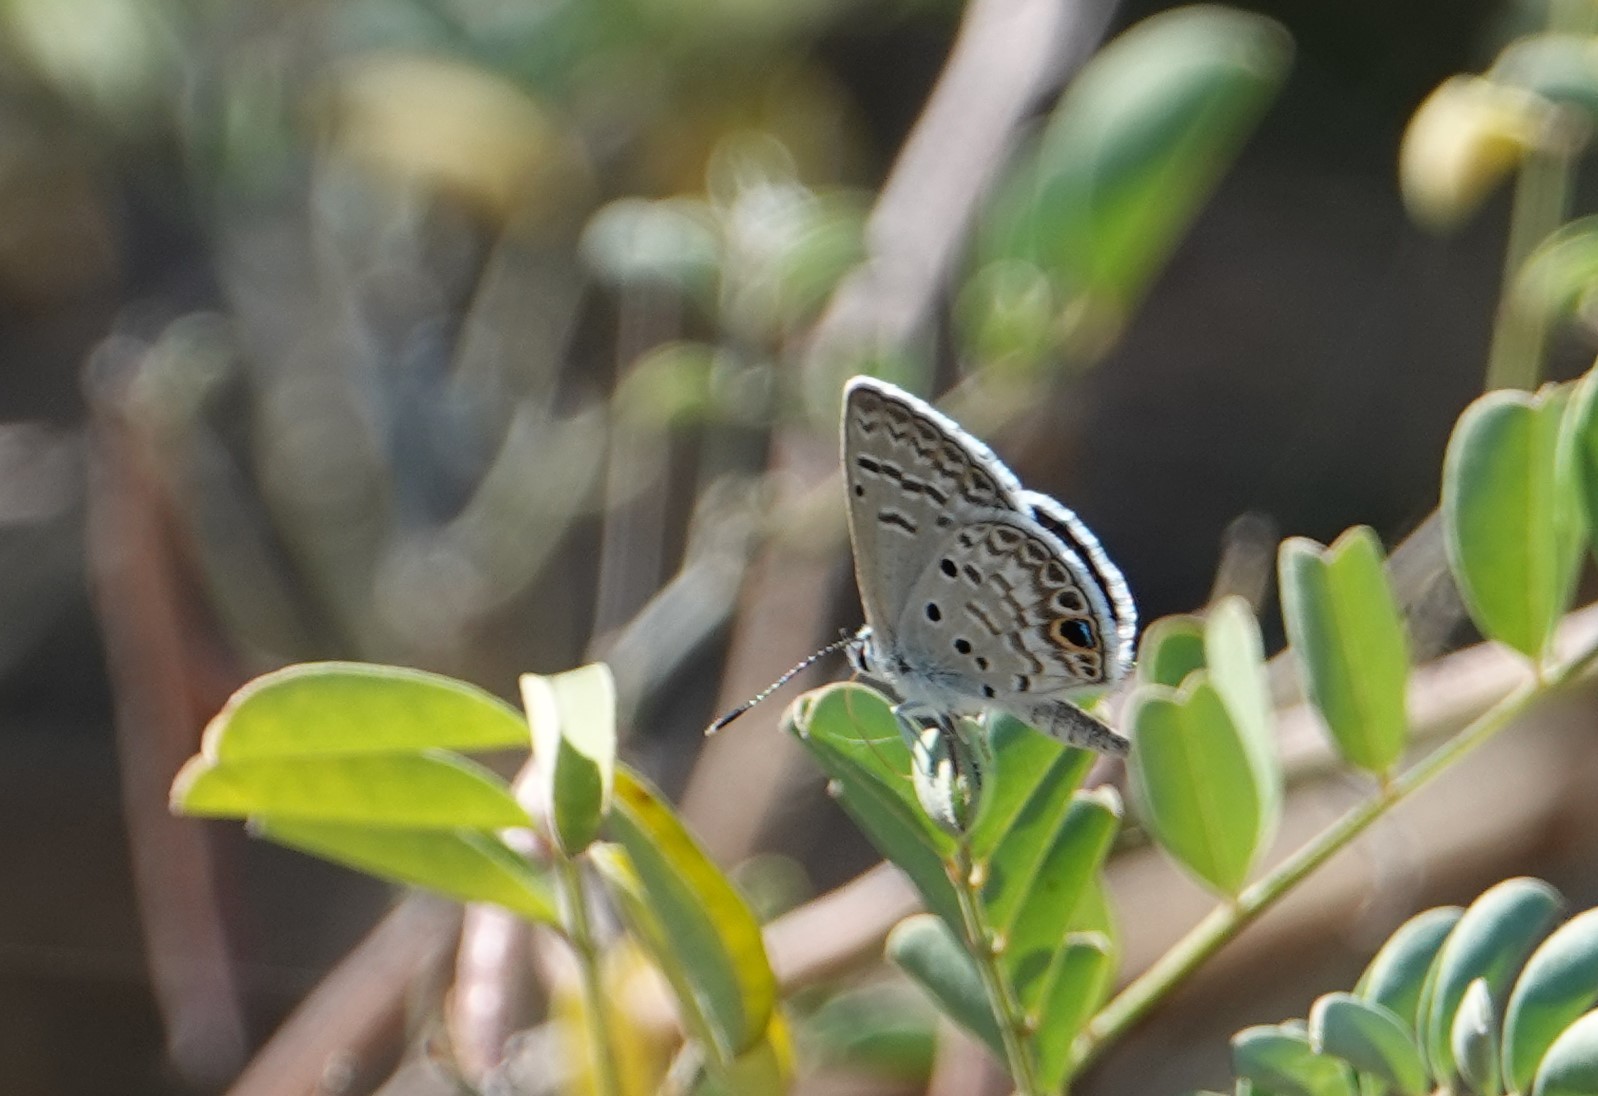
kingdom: Animalia
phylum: Arthropoda
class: Insecta
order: Lepidoptera
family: Lycaenidae
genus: Hemiargus
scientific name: Hemiargus ceraunus
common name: Ceraunus blue
